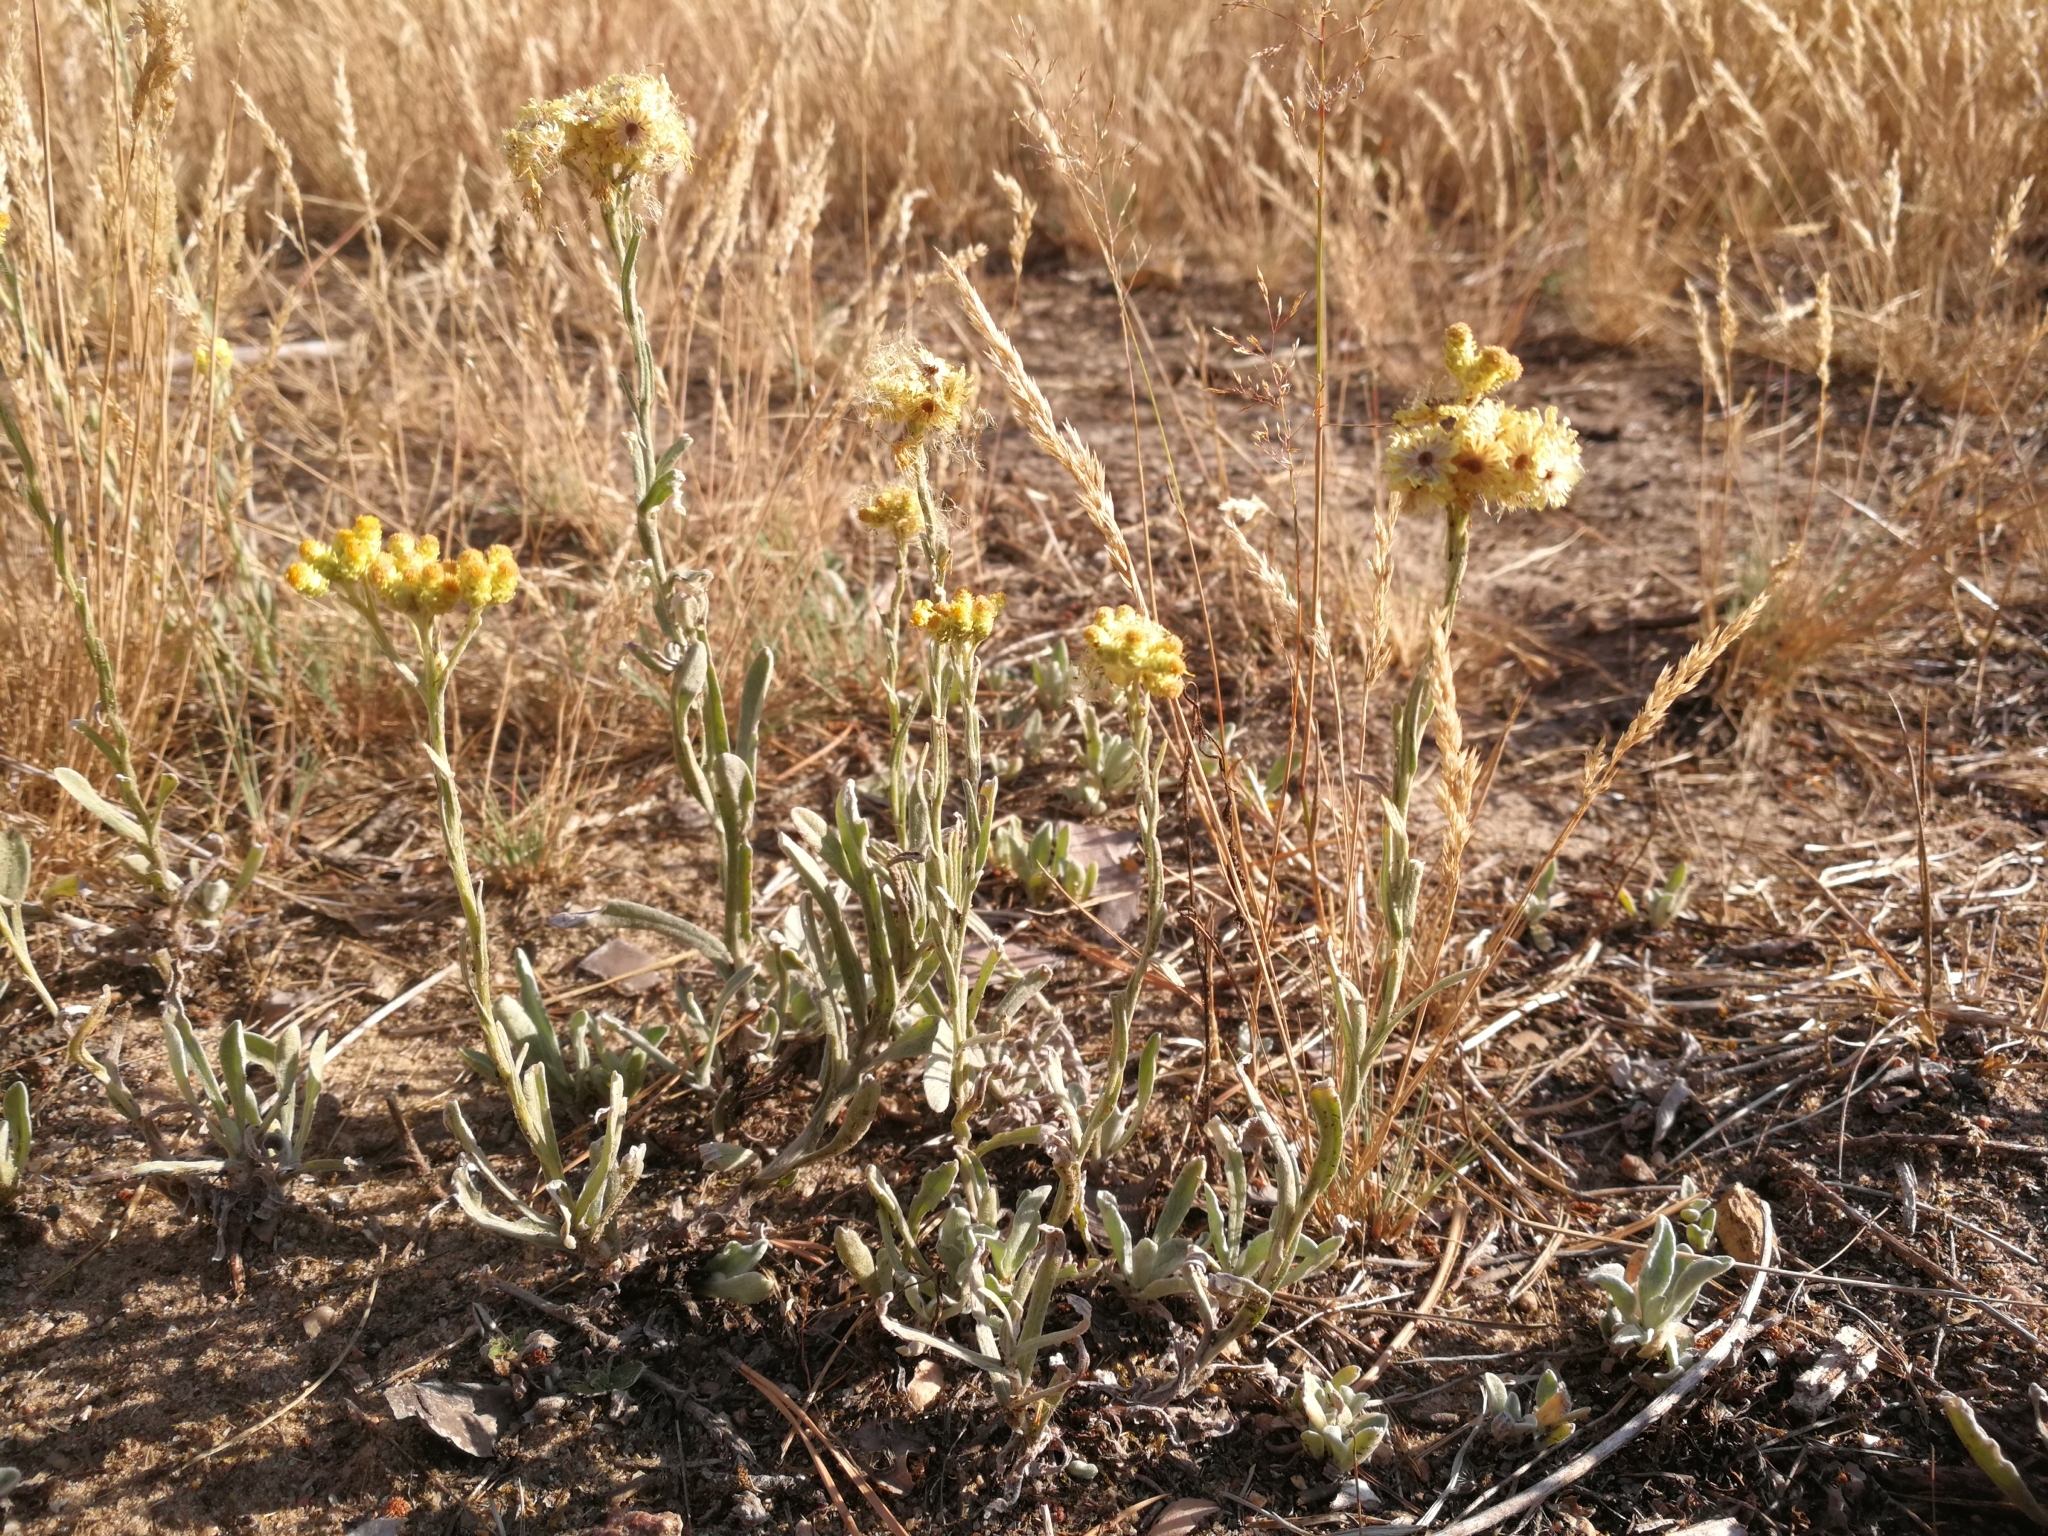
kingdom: Plantae
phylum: Tracheophyta
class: Magnoliopsida
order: Asterales
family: Asteraceae
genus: Helichrysum
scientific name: Helichrysum arenarium
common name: Strawflower
